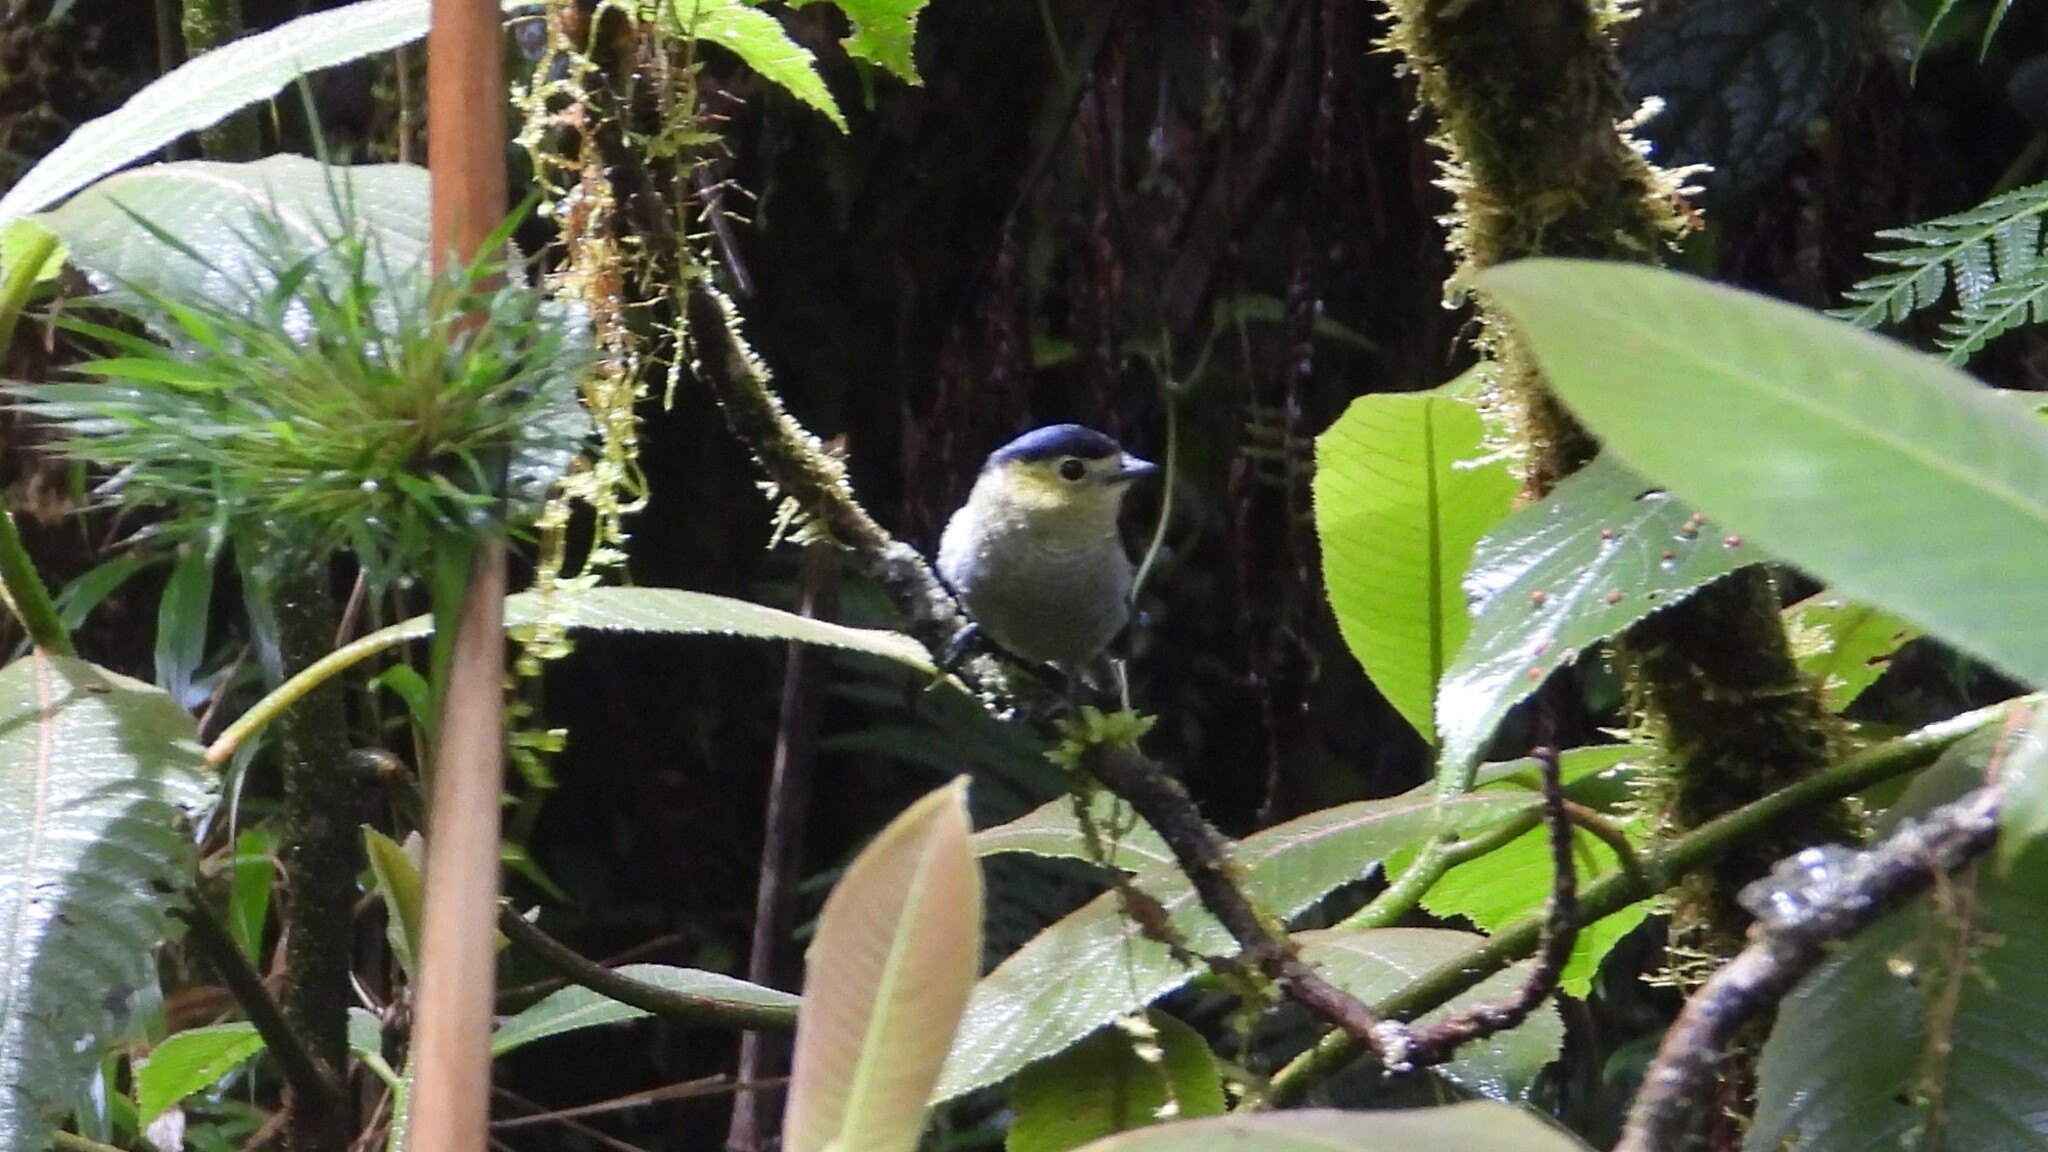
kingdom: Animalia
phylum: Chordata
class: Aves
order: Passeriformes
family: Cotingidae
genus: Pachyramphus
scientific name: Pachyramphus versicolor
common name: Barred becard
